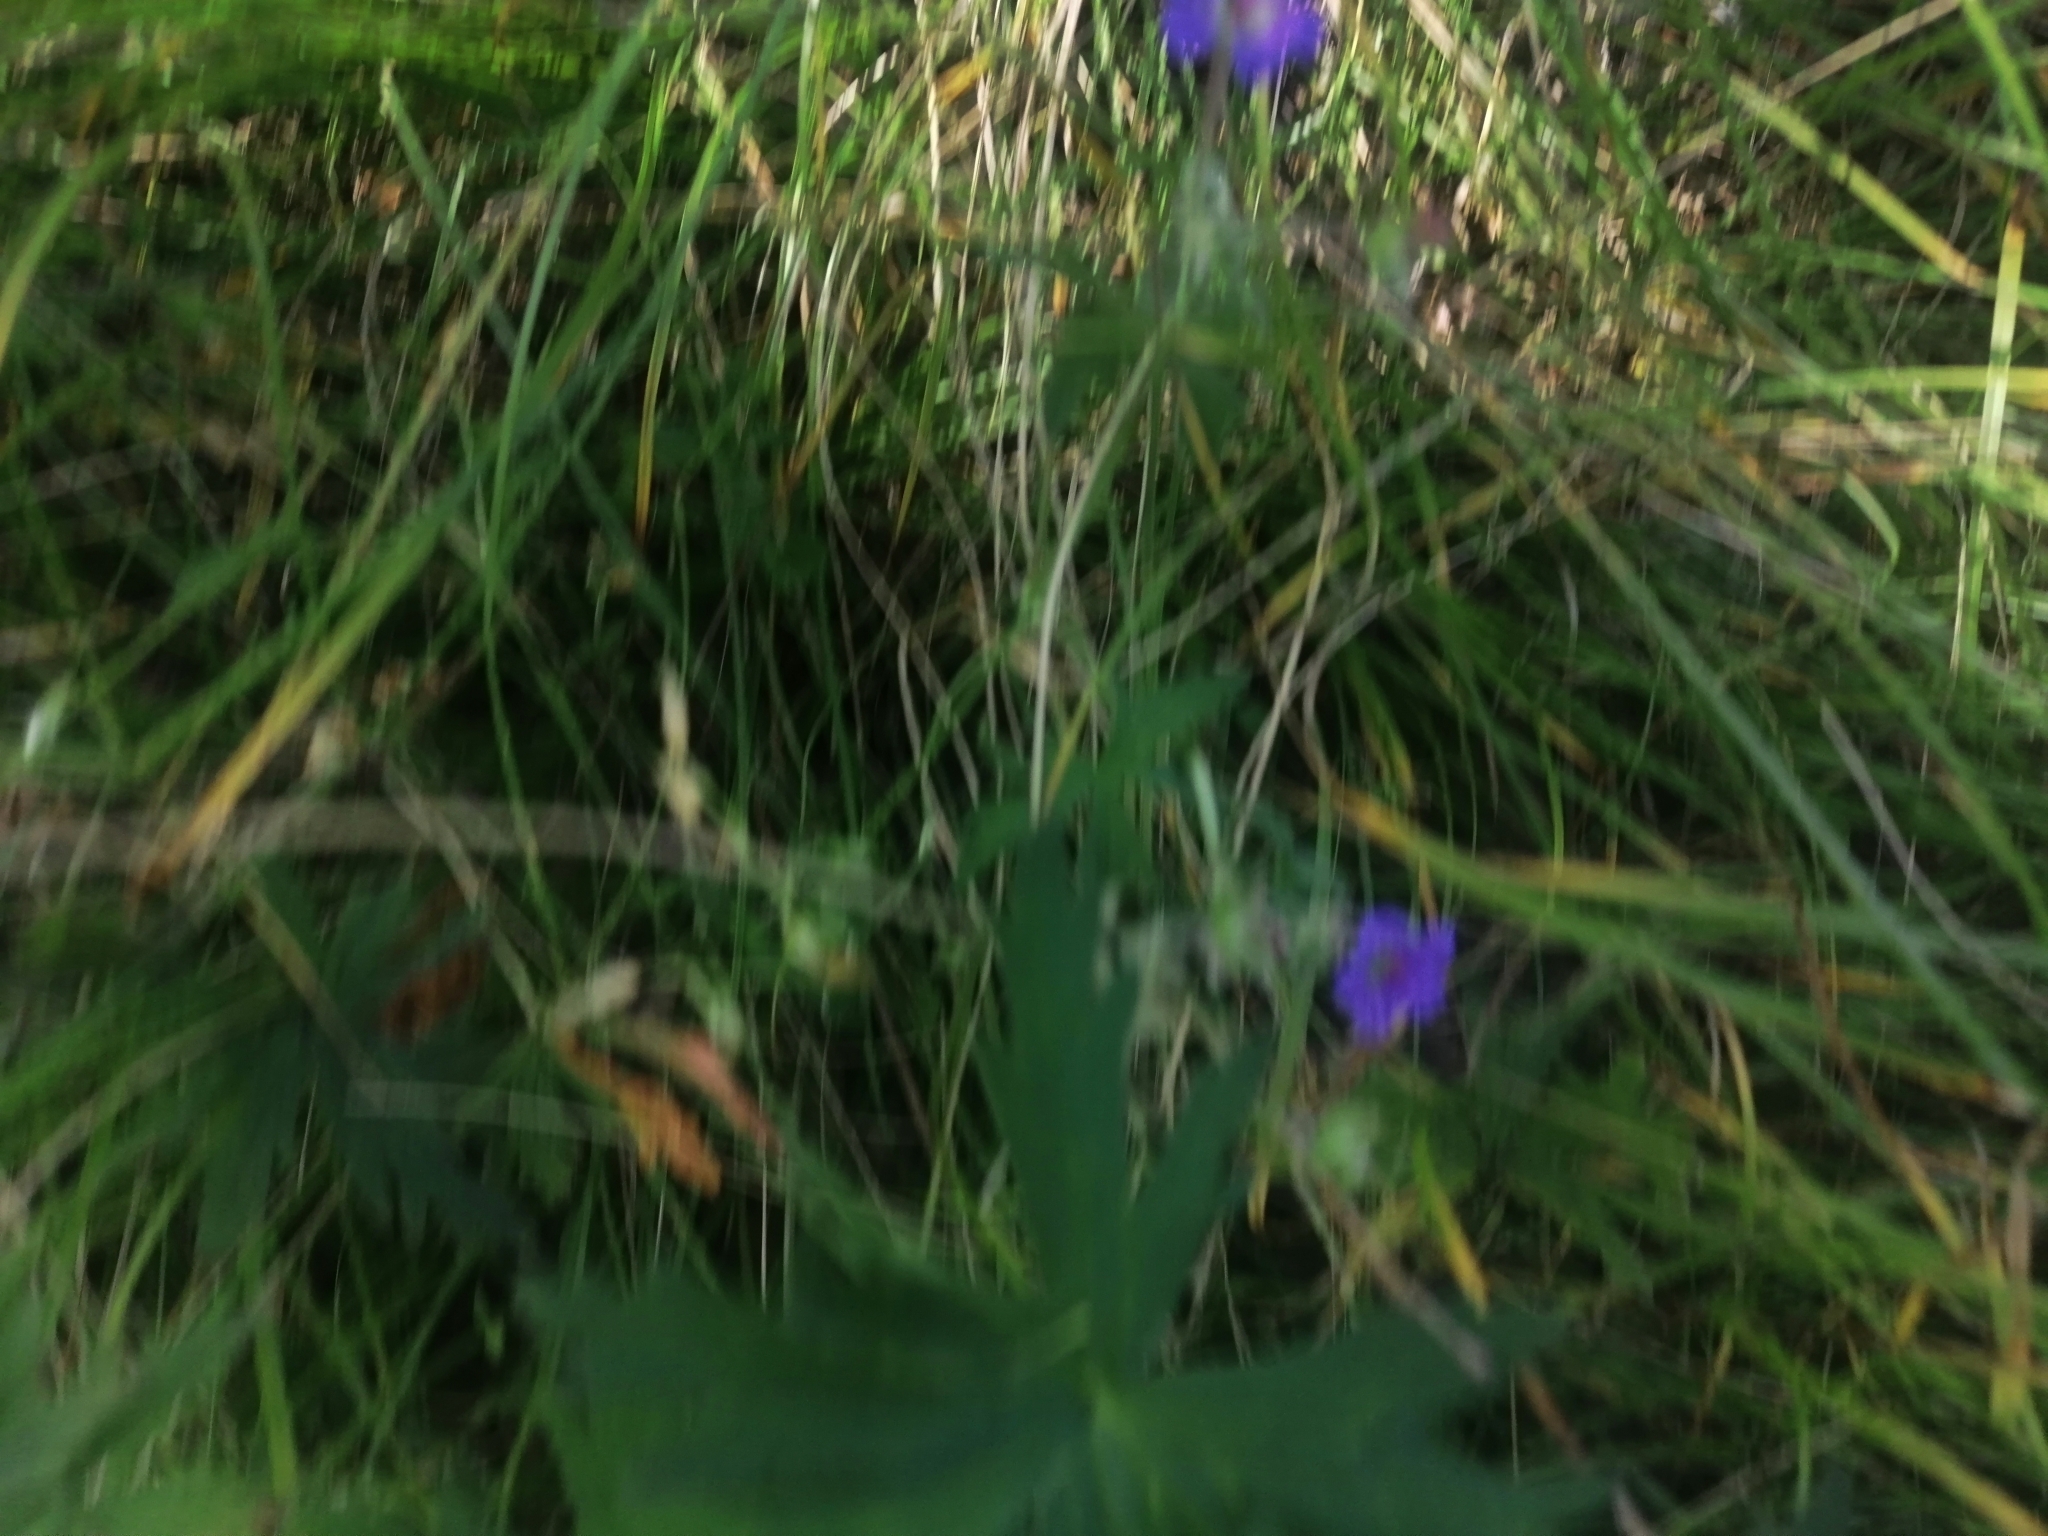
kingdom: Plantae
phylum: Tracheophyta
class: Magnoliopsida
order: Geraniales
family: Geraniaceae
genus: Geranium
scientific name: Geranium pseudosibiricum
